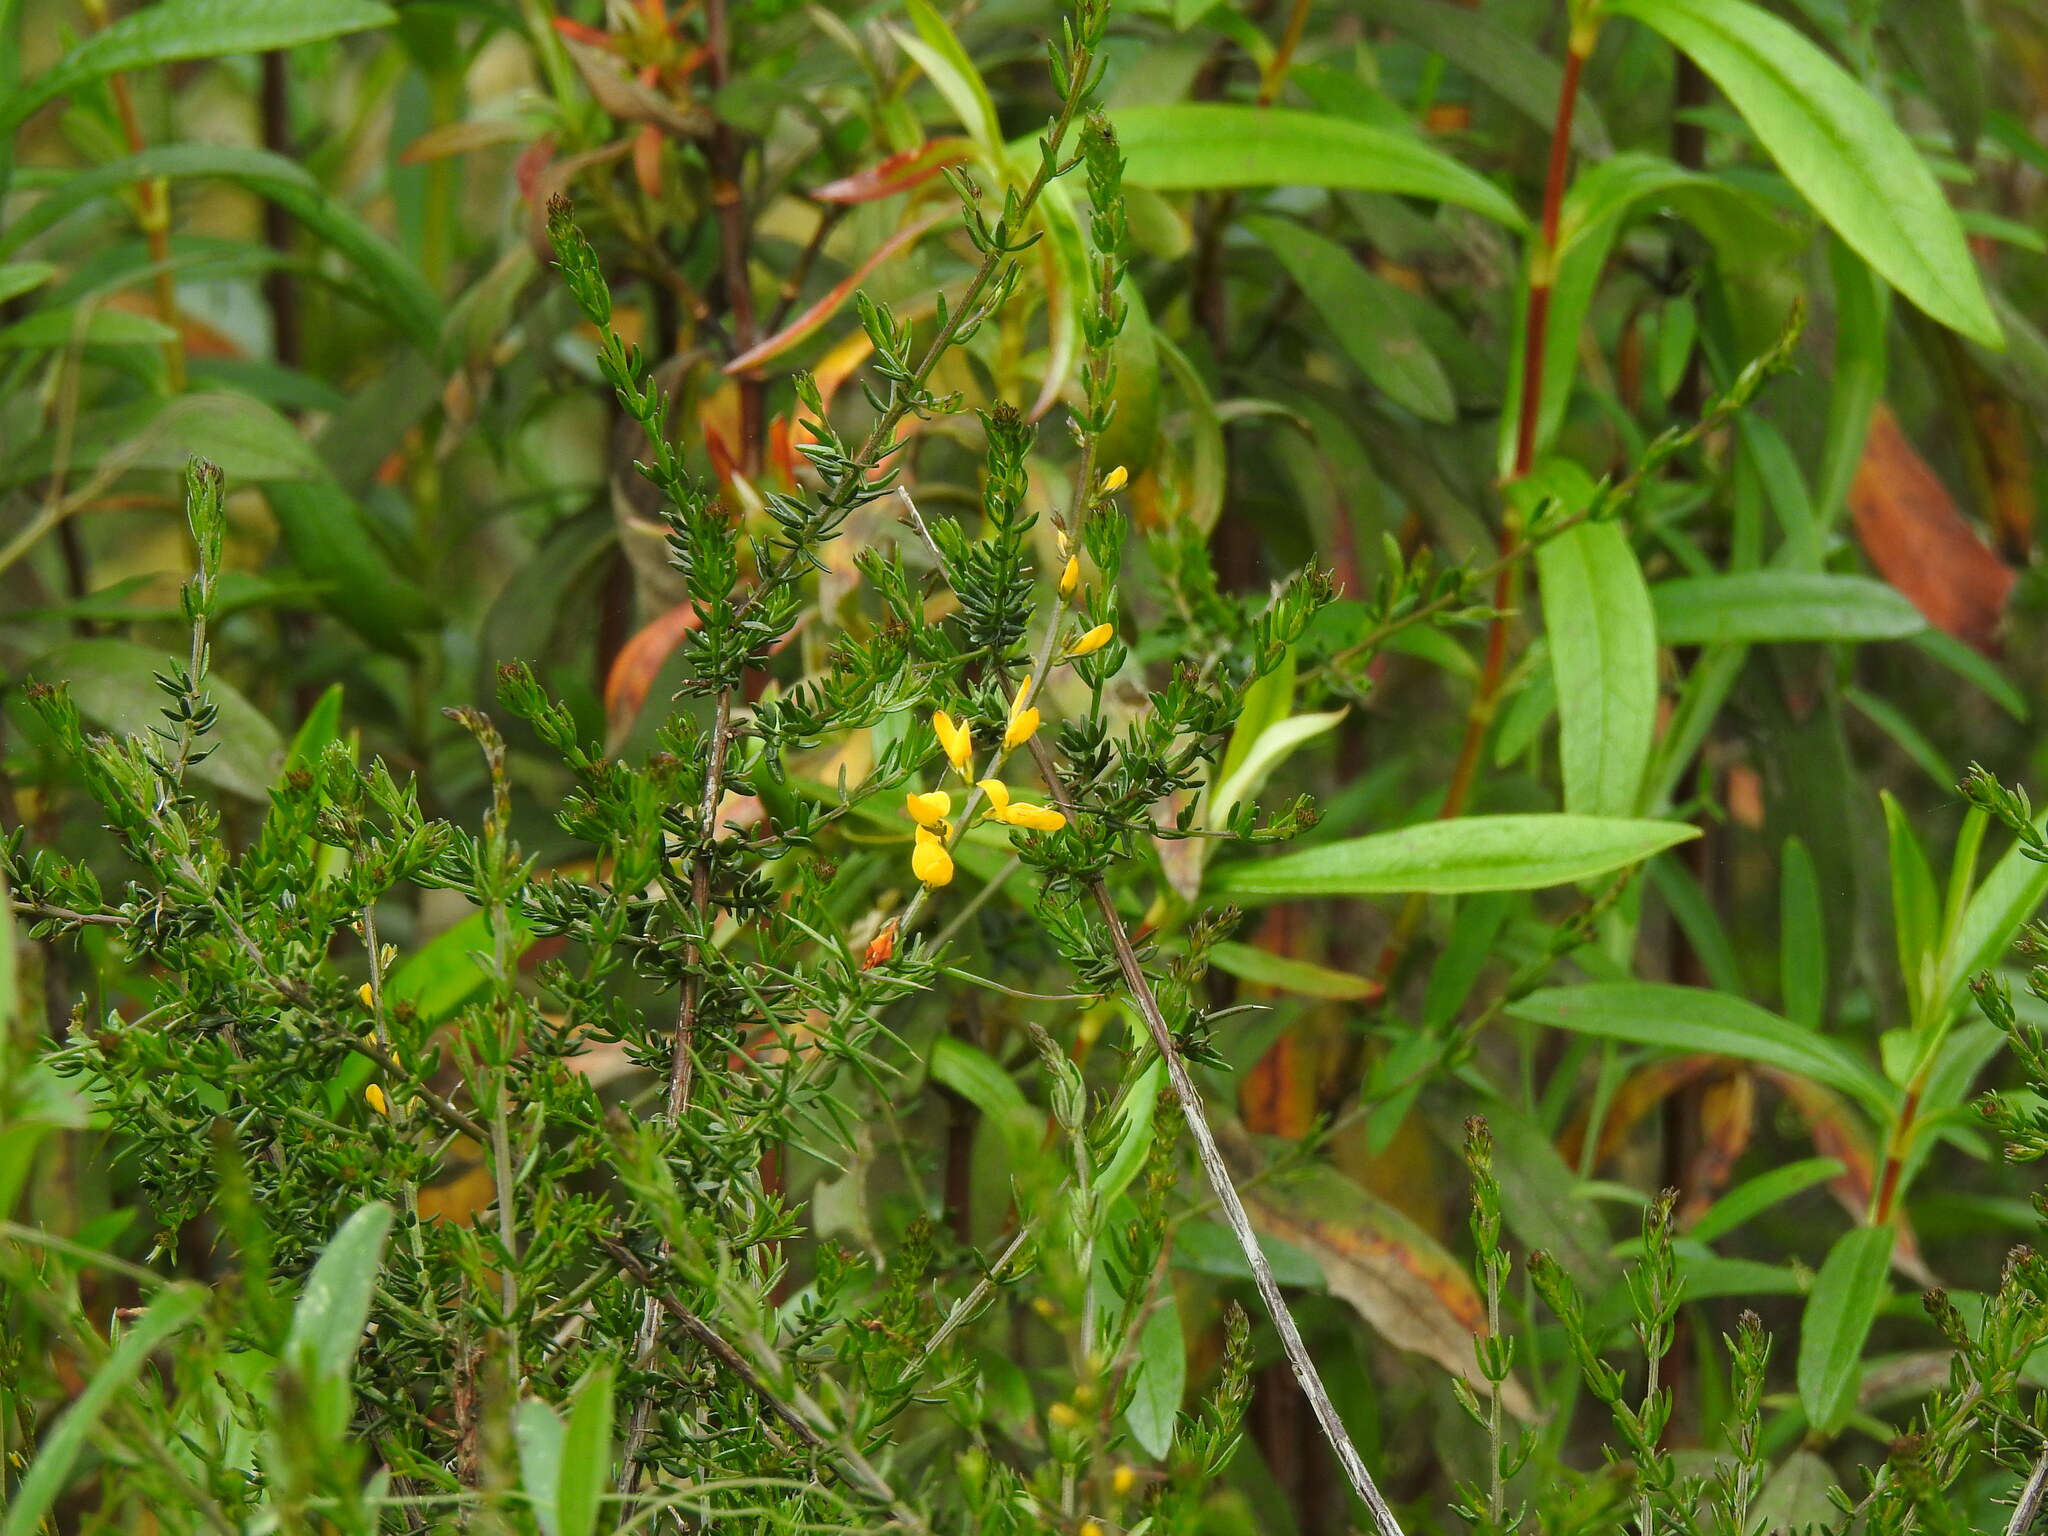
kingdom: Plantae
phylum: Tracheophyta
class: Magnoliopsida
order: Fabales
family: Fabaceae
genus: Genista
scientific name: Genista triacanthos
